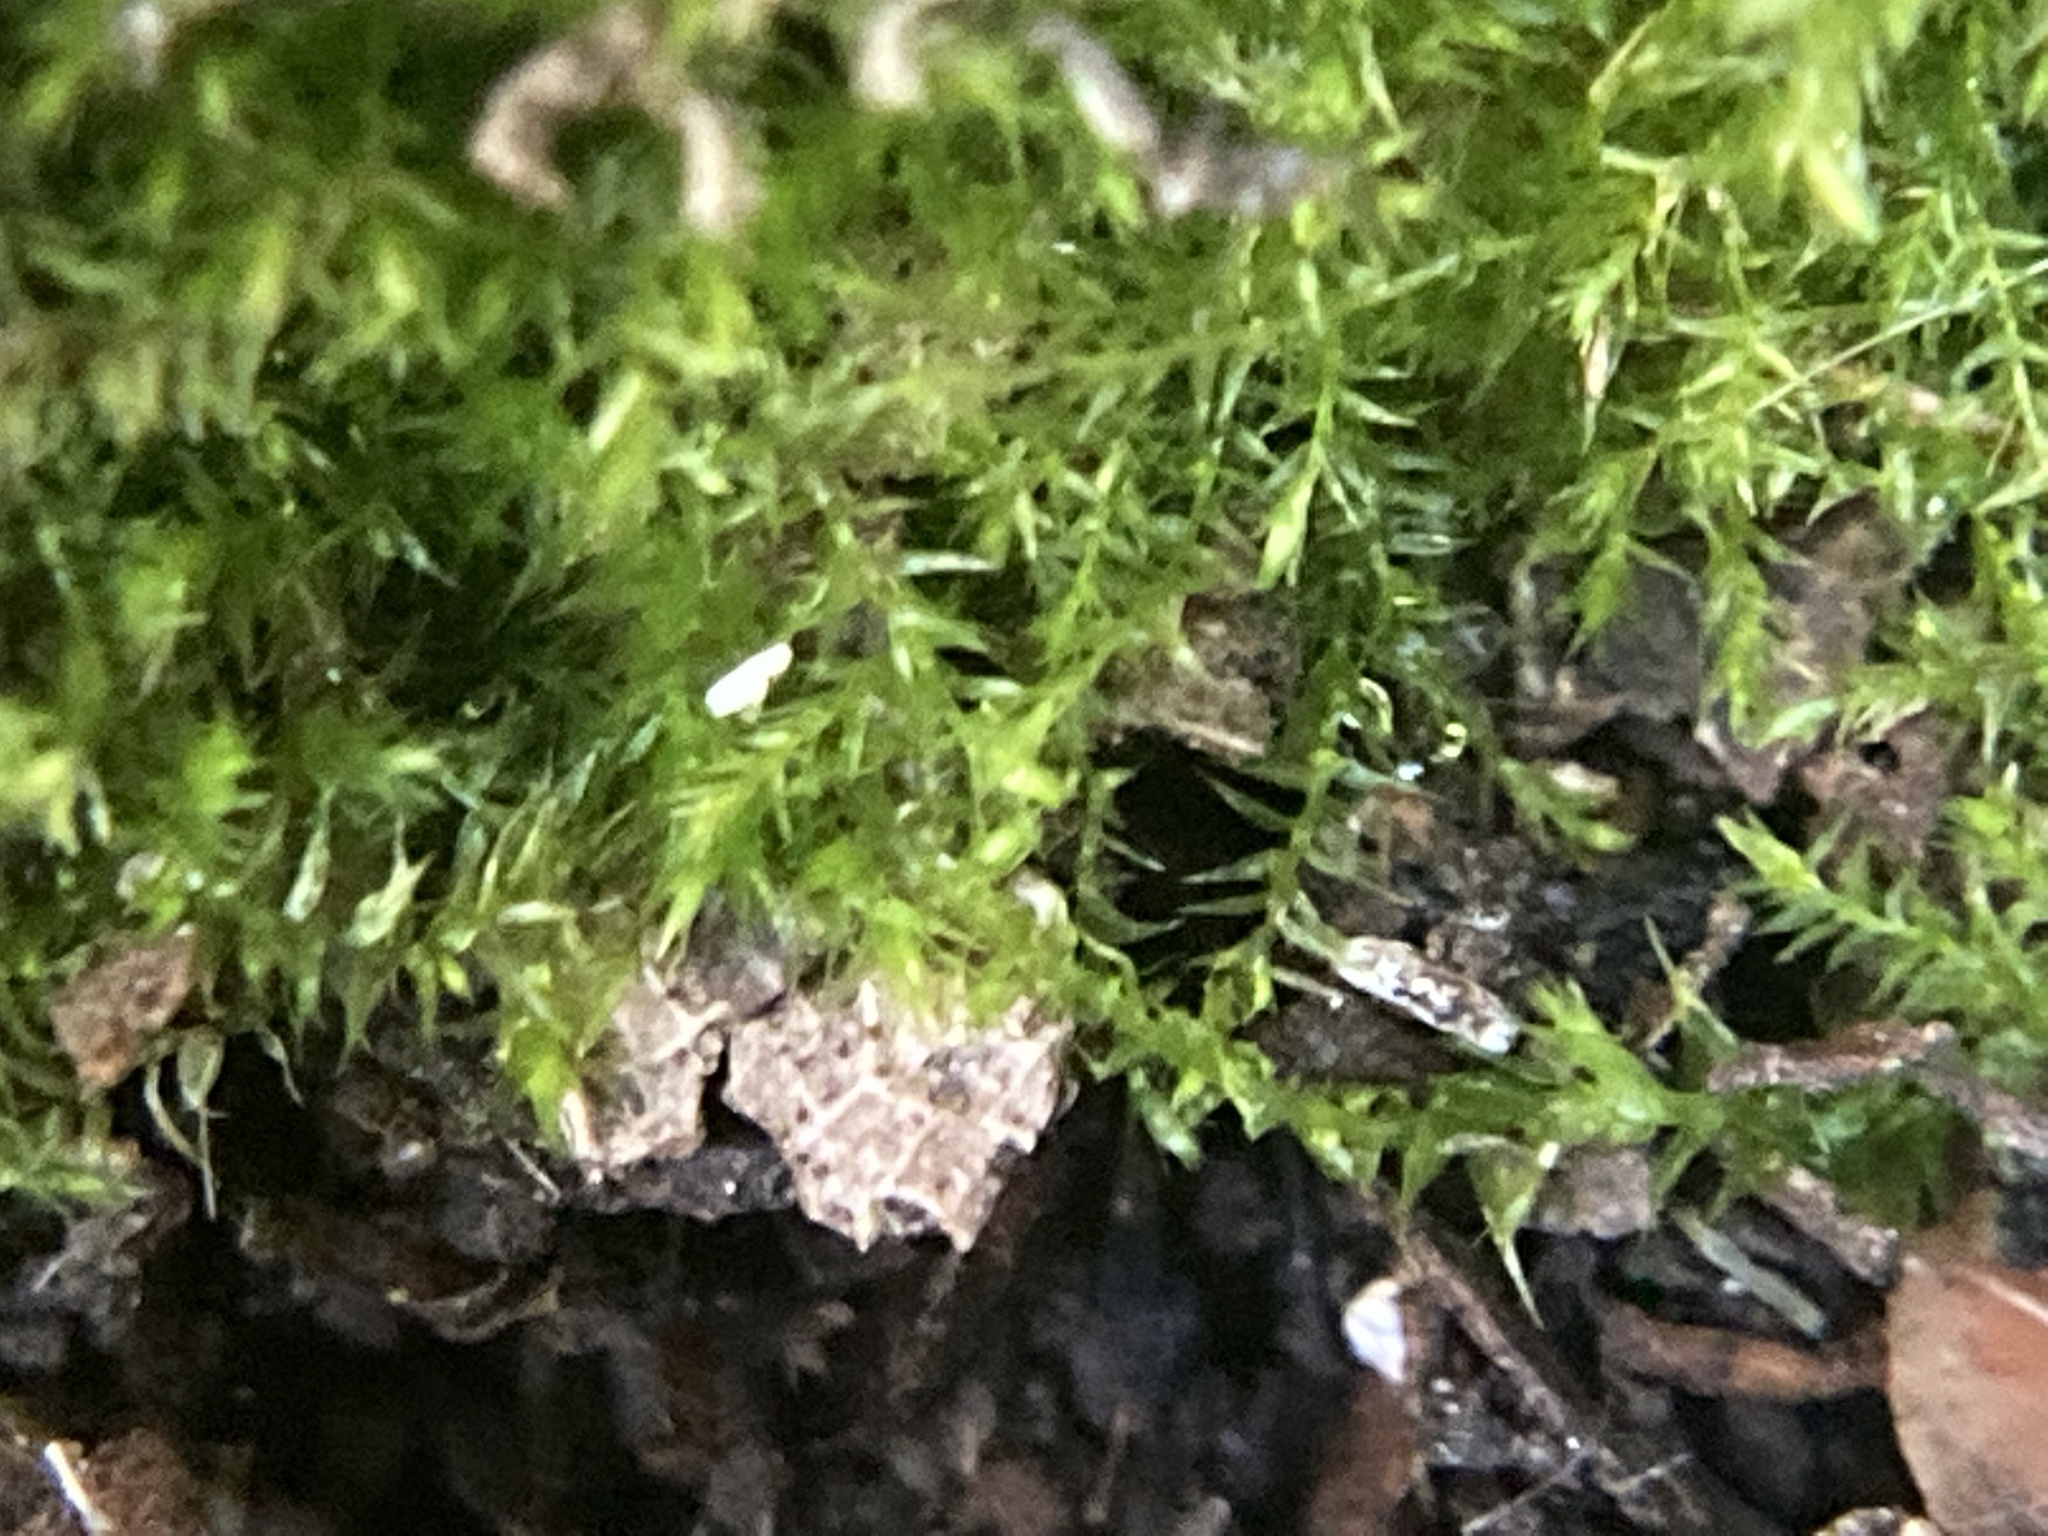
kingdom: Plantae
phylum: Bryophyta
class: Bryopsida
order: Hypnales
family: Brachytheciaceae
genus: Oxyrrhynchium
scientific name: Oxyrrhynchium hians
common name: Spreading beaked moss
